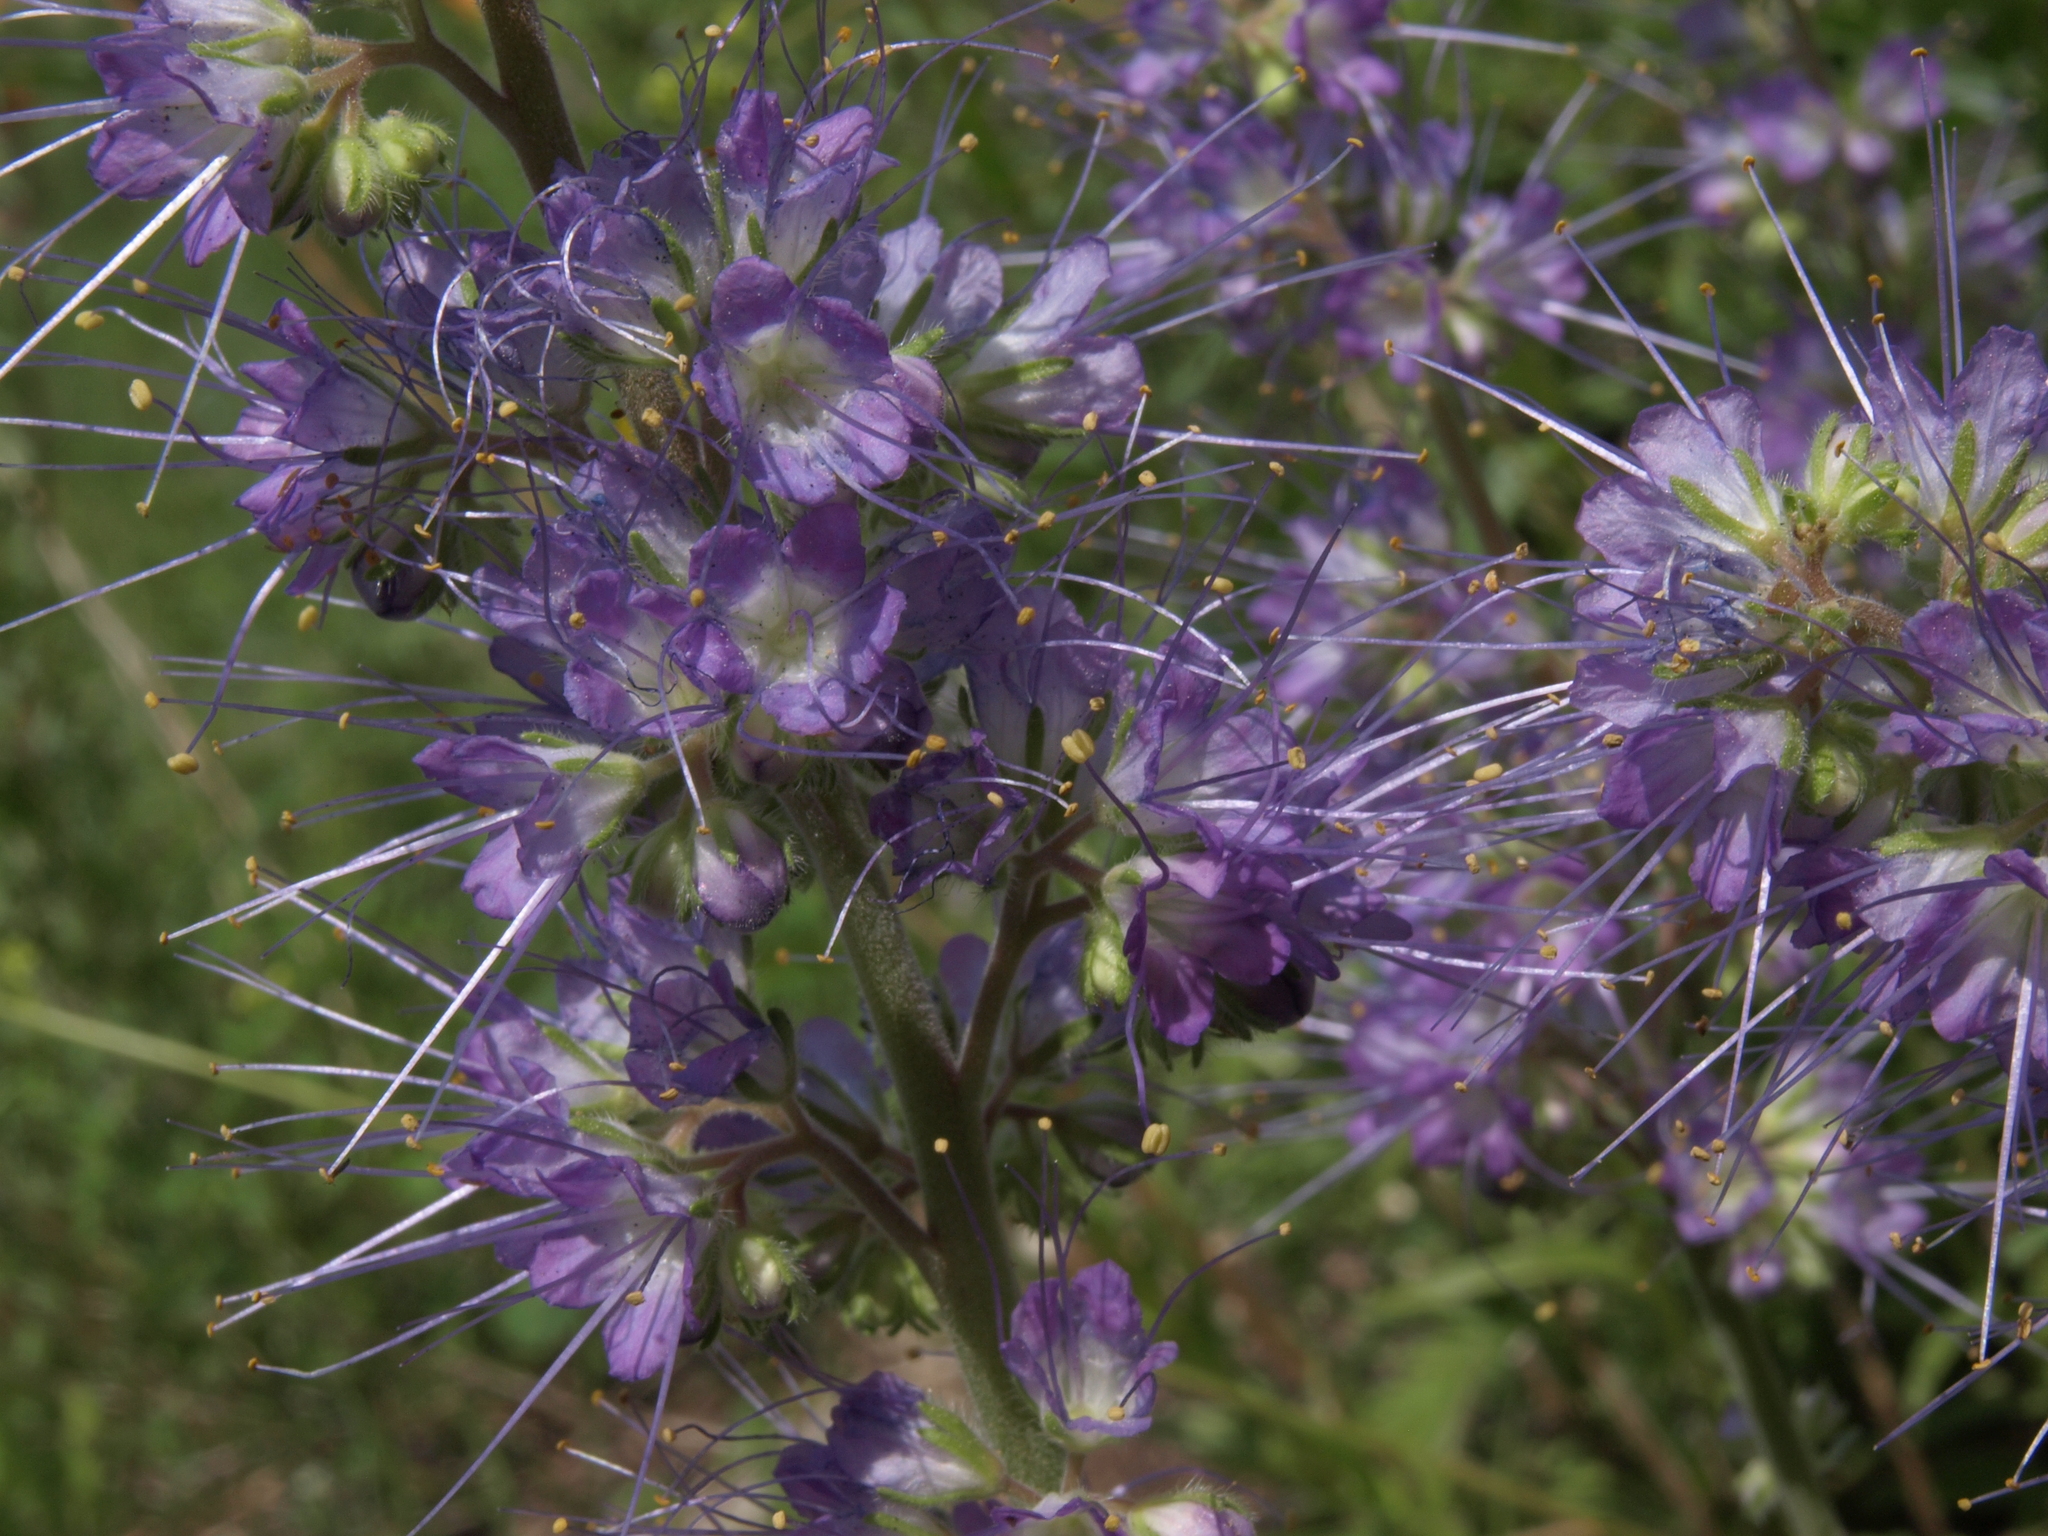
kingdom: Plantae
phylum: Tracheophyta
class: Magnoliopsida
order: Boraginales
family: Hydrophyllaceae
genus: Phacelia
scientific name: Phacelia sericea
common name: Silky phacelia
